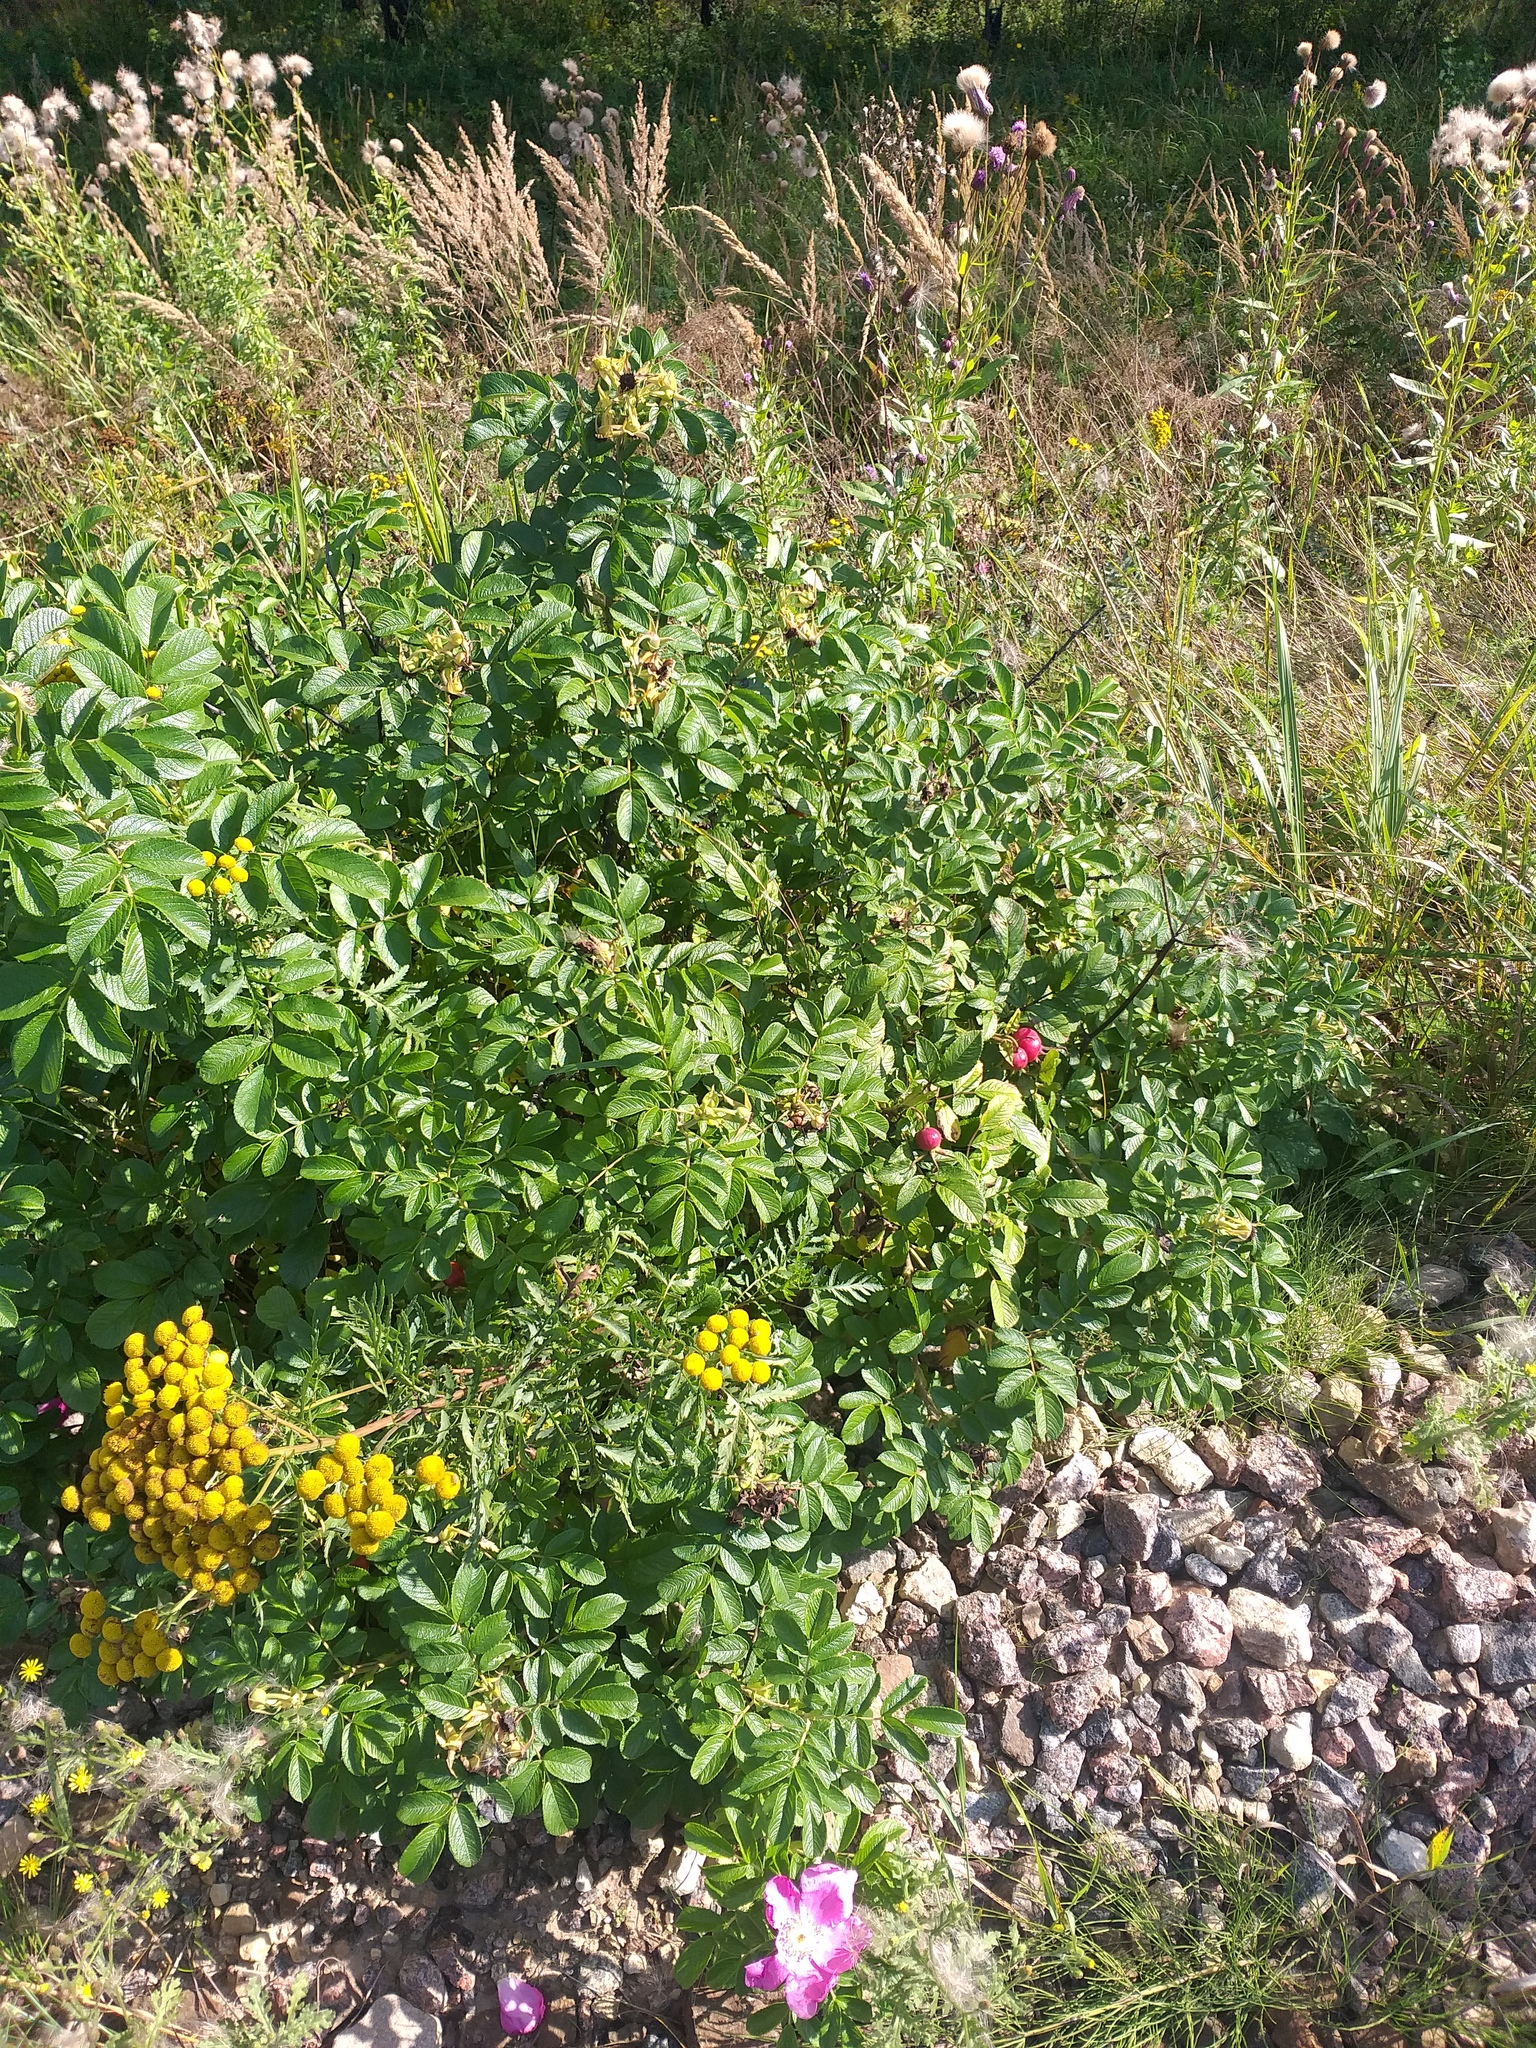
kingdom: Plantae
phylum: Tracheophyta
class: Magnoliopsida
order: Rosales
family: Rosaceae
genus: Rosa
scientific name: Rosa rugosa
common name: Japanese rose
